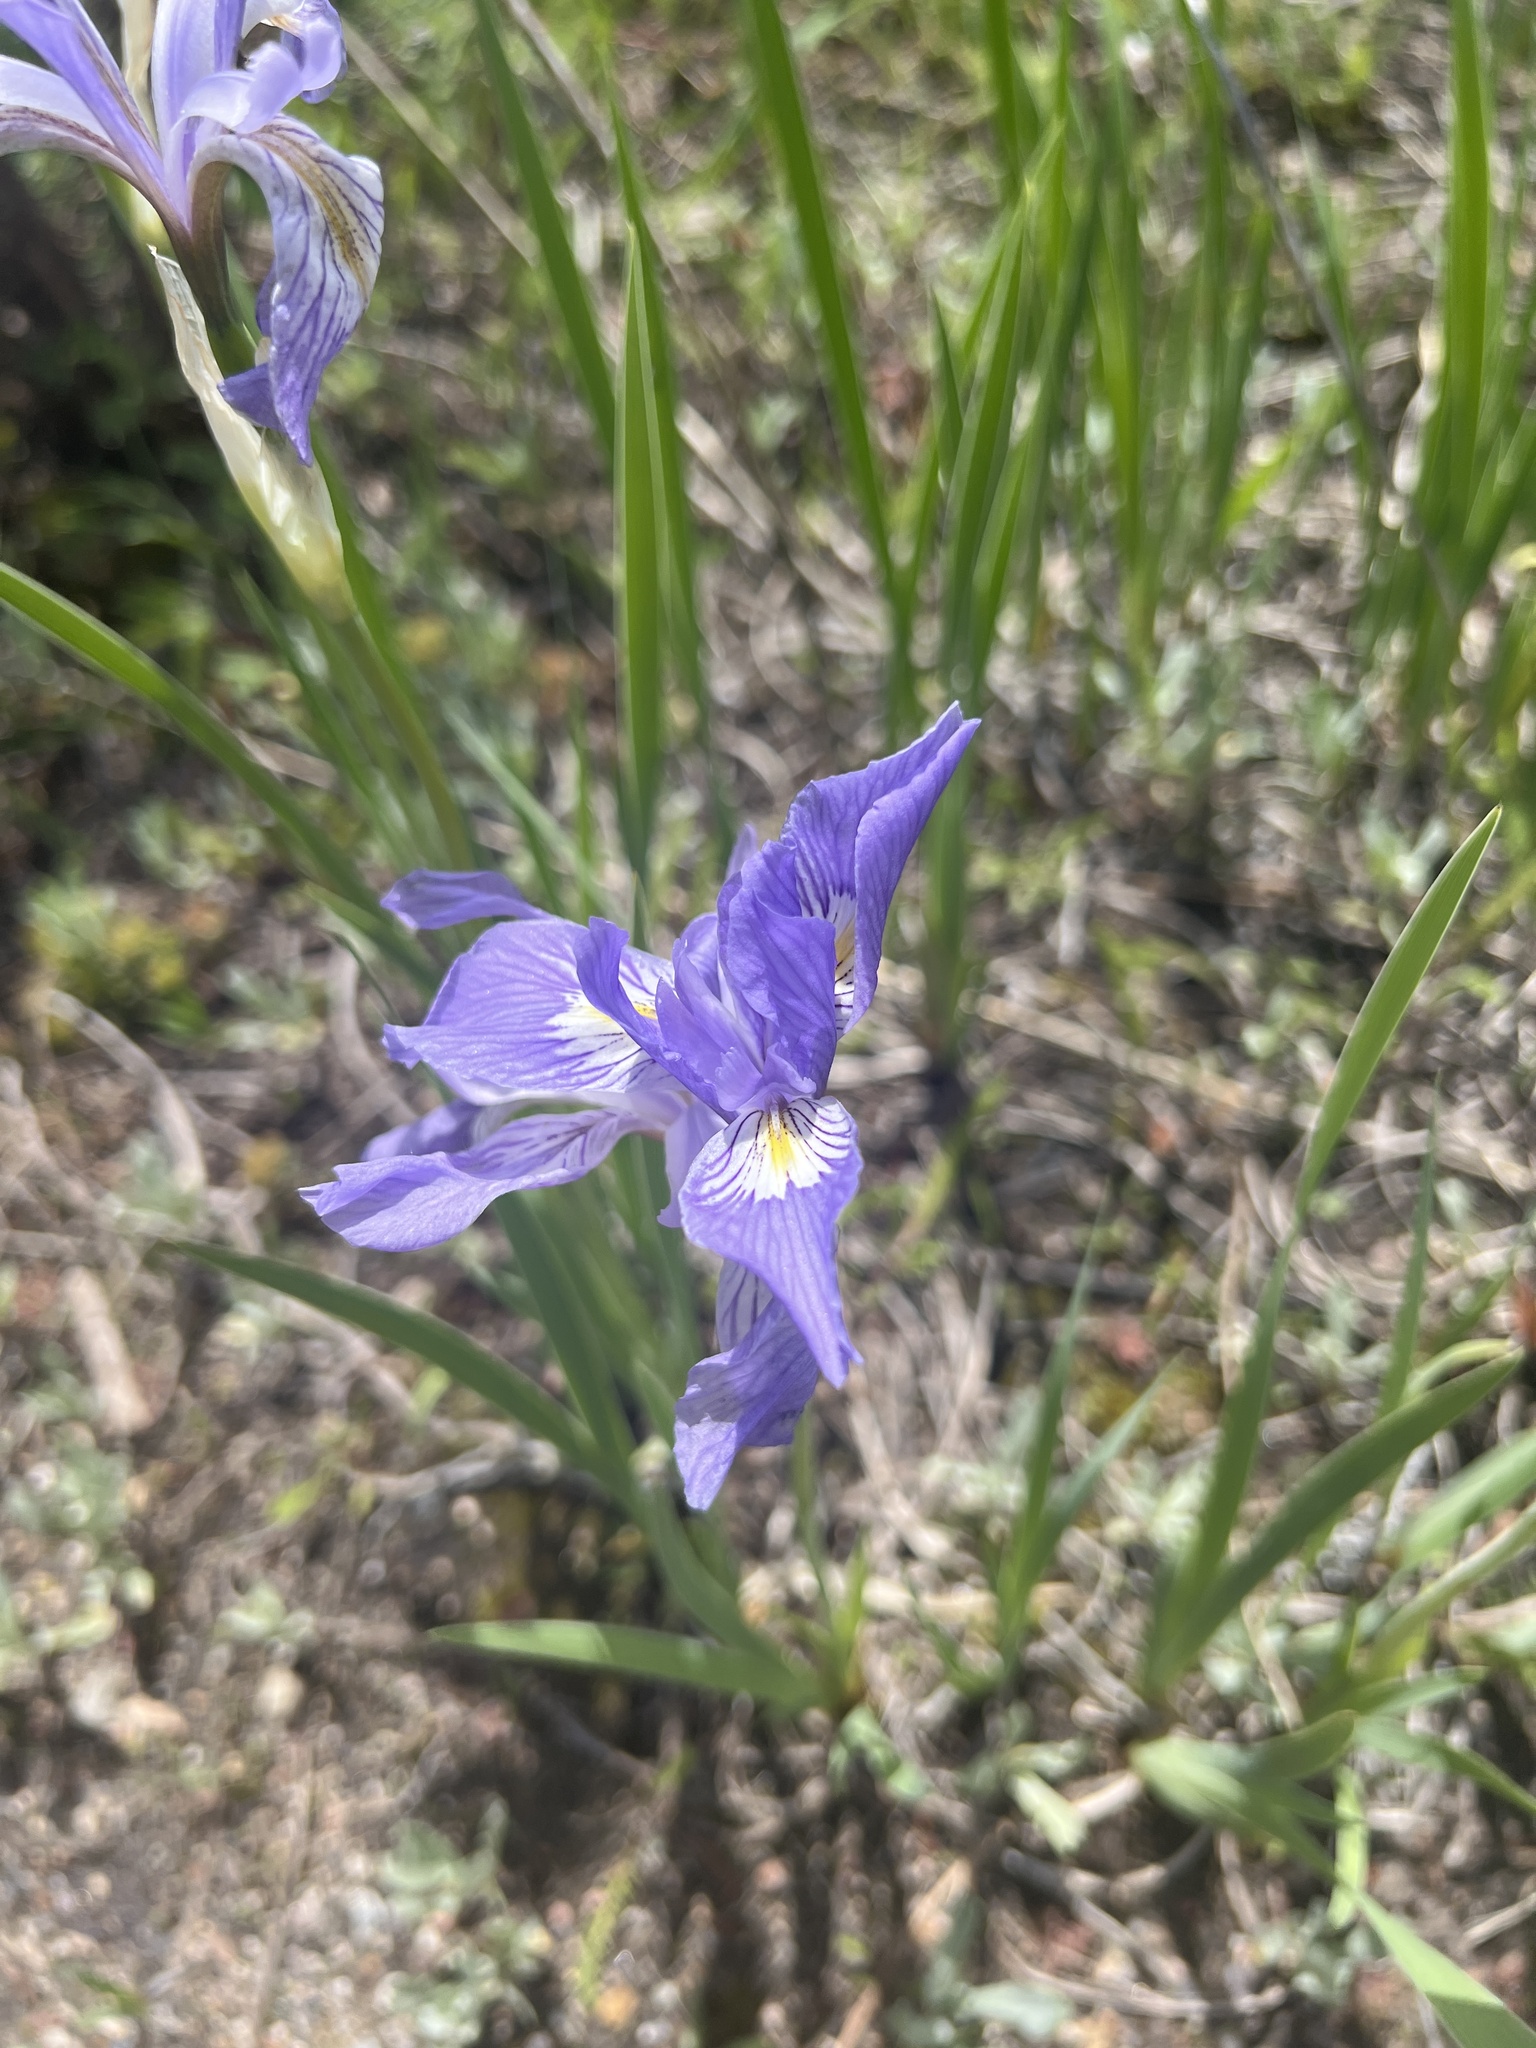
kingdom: Plantae
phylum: Tracheophyta
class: Liliopsida
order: Asparagales
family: Iridaceae
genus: Iris
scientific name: Iris missouriensis
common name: Rocky mountain iris
